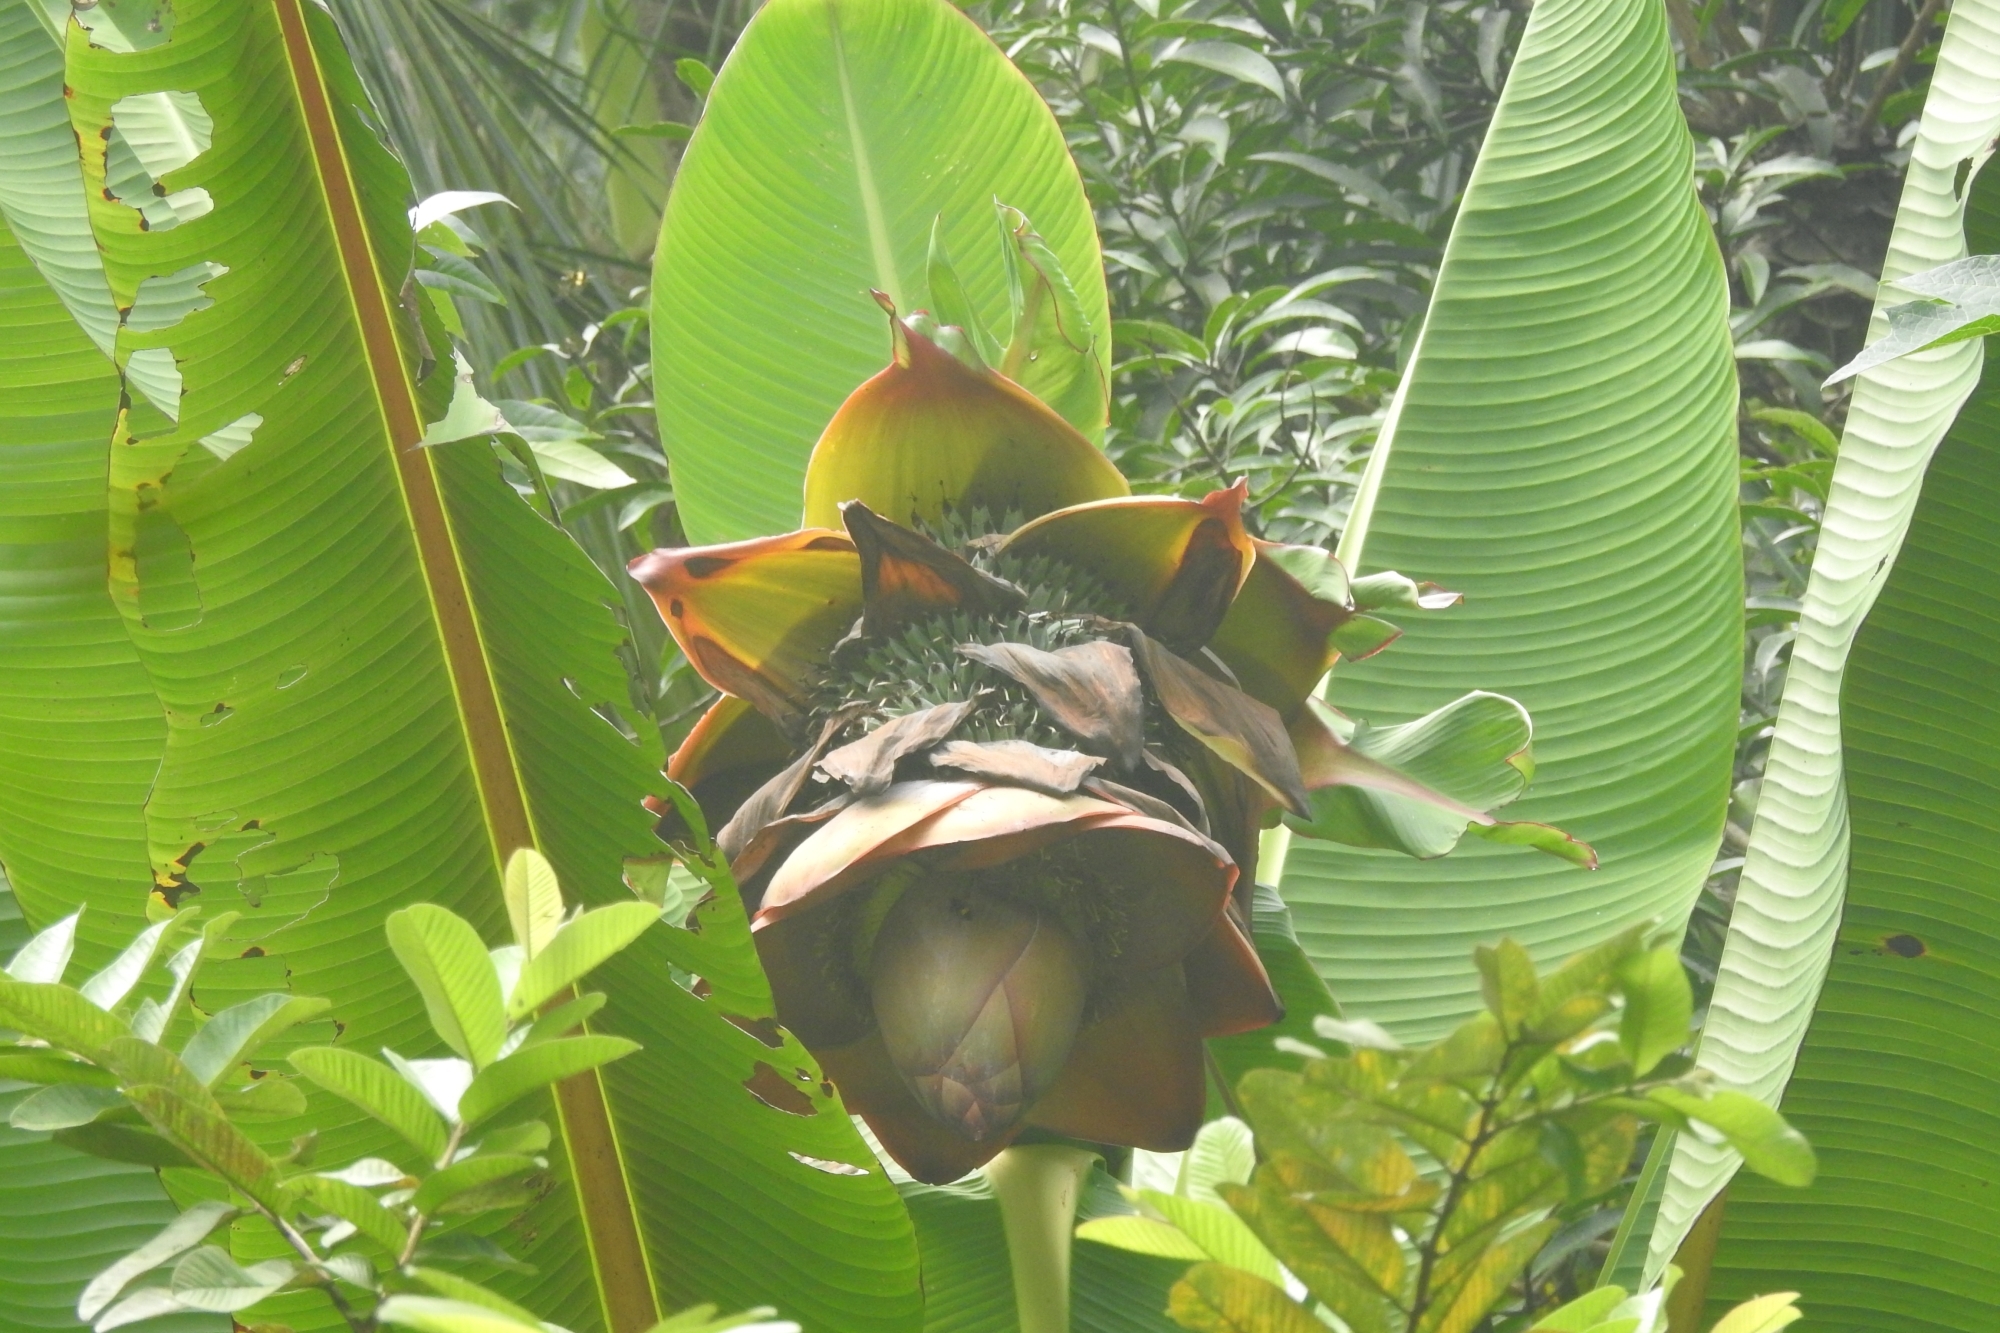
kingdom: Plantae
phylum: Tracheophyta
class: Liliopsida
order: Zingiberales
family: Musaceae
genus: Ensete
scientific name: Ensete superbum
